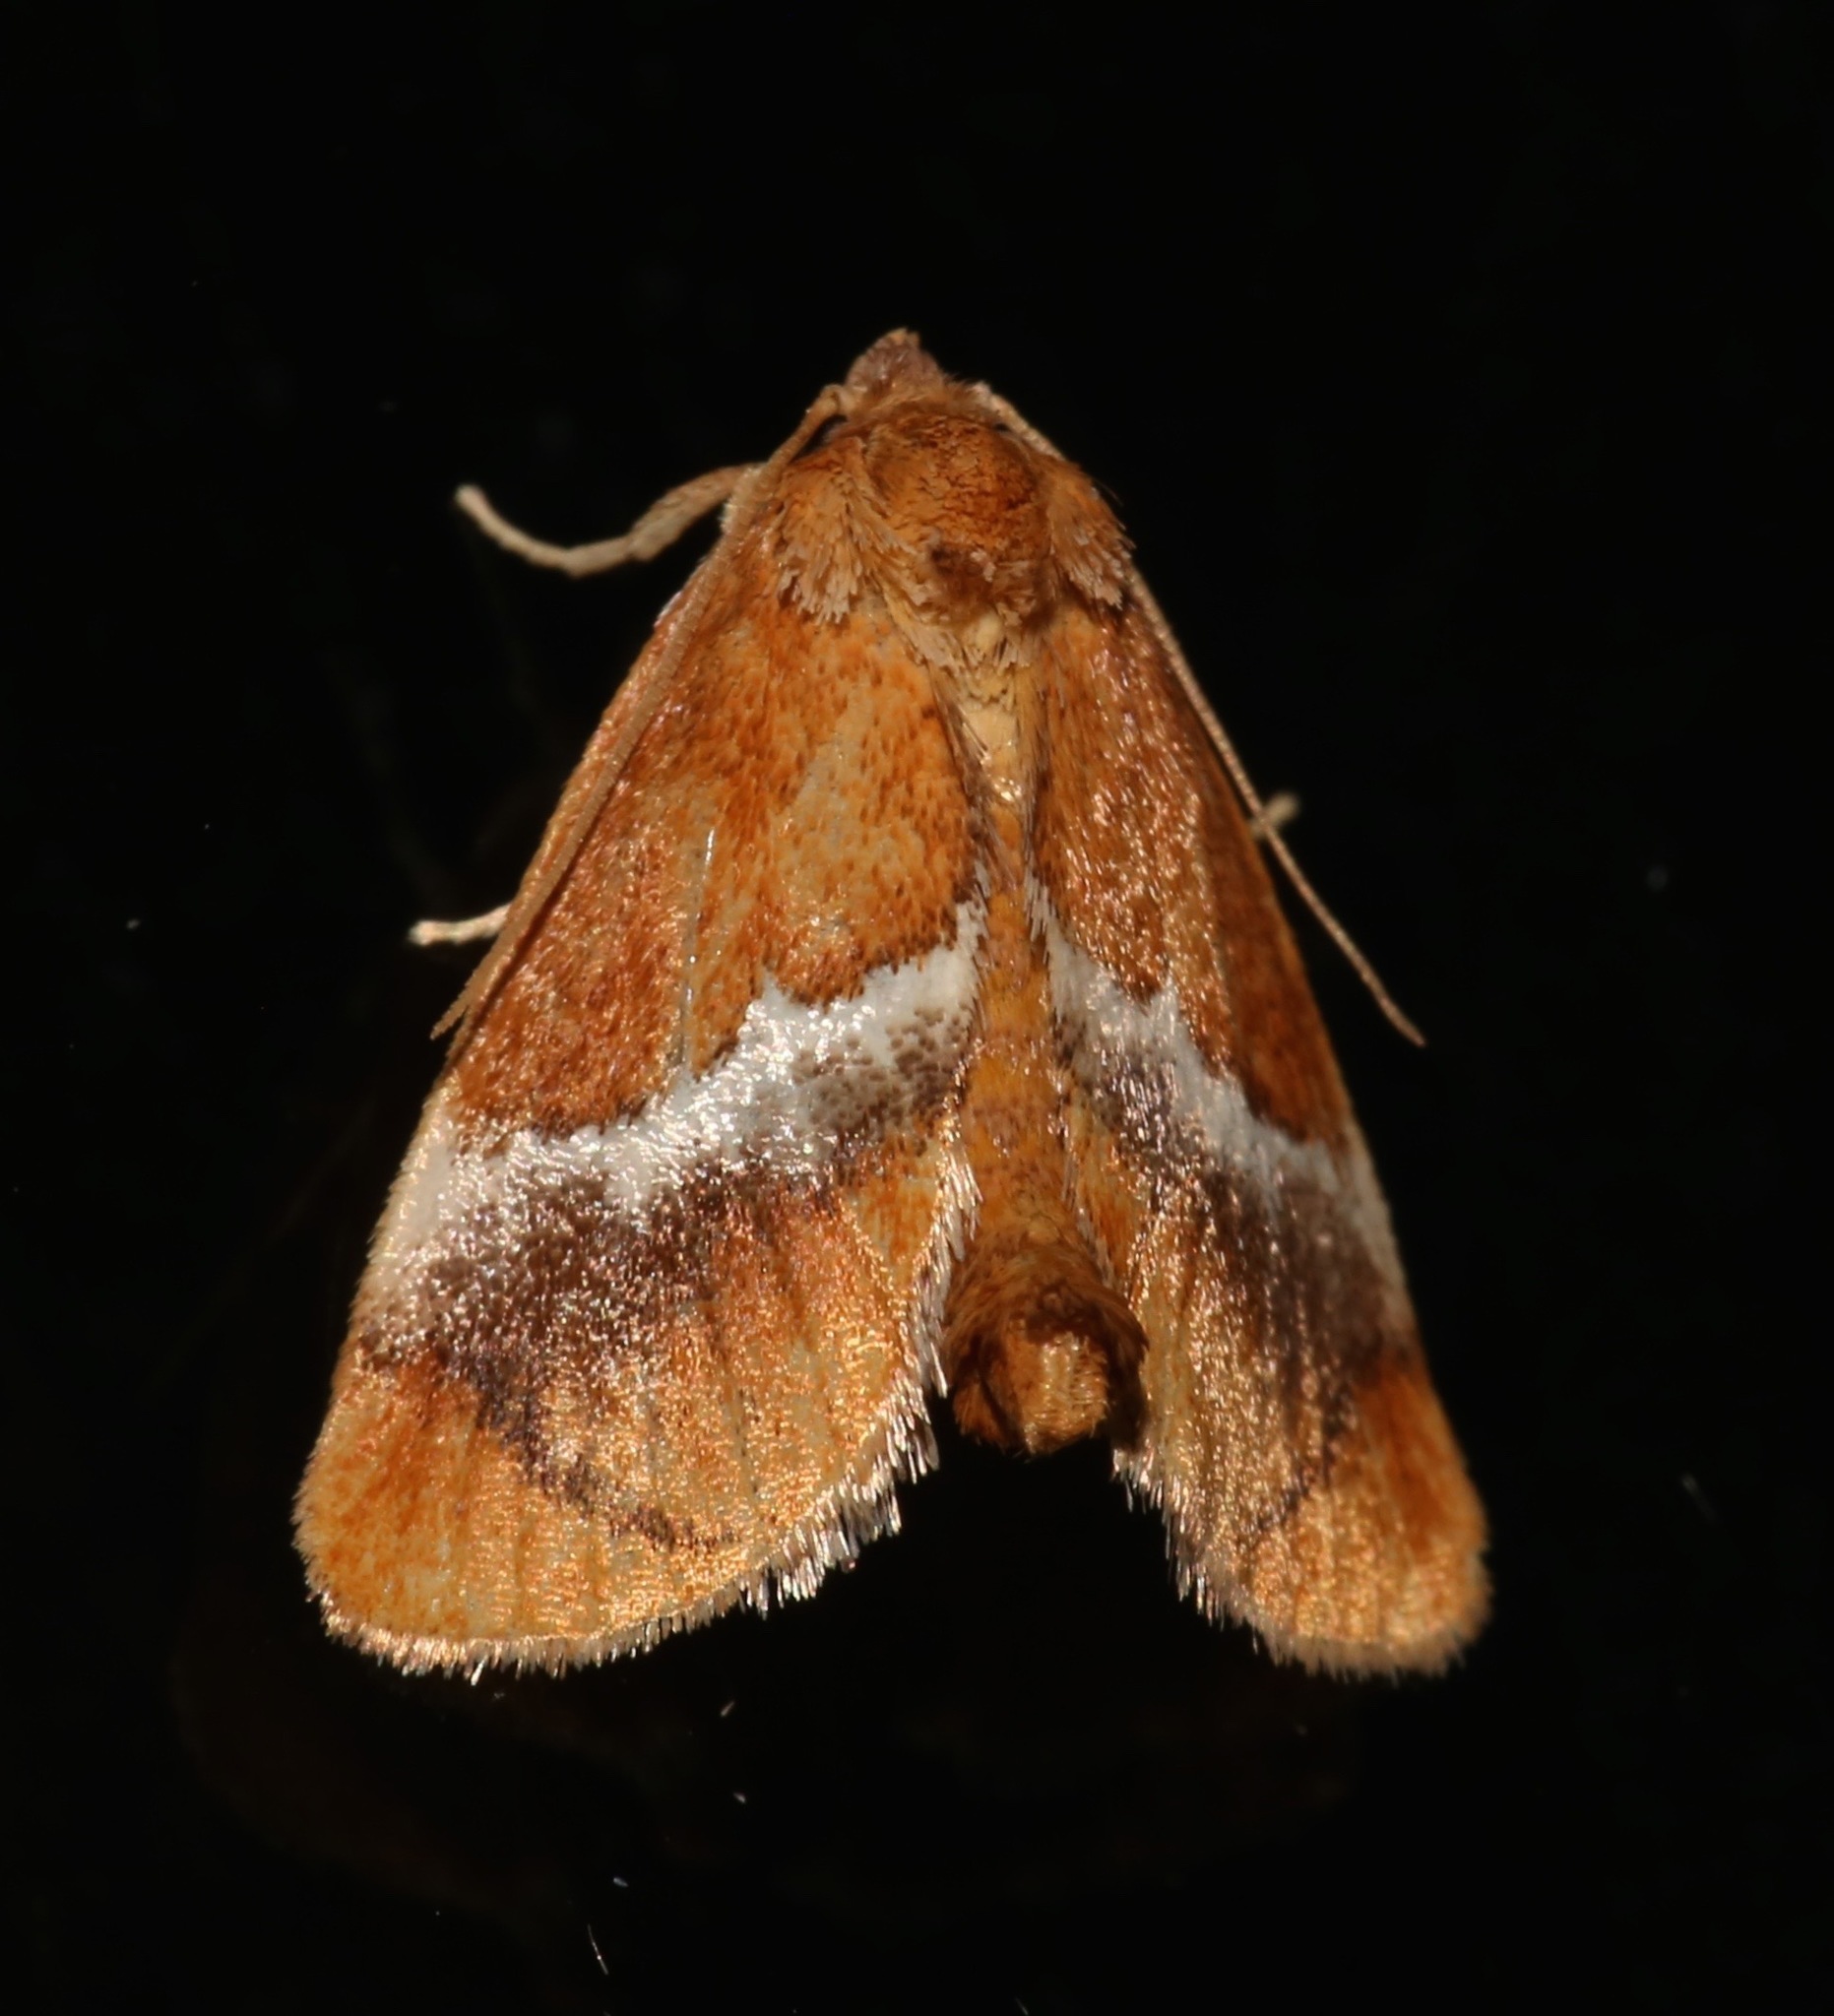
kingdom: Animalia
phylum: Arthropoda
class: Insecta
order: Lepidoptera
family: Limacodidae
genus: Lithacodes
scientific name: Lithacodes fasciola
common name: Yellow-shouldered slug moth
